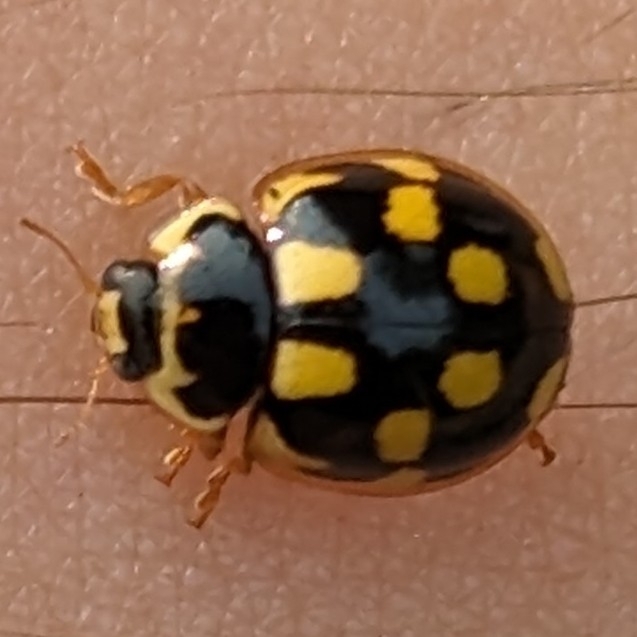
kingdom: Animalia
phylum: Arthropoda
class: Insecta
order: Coleoptera
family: Coccinellidae
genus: Propylaea
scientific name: Propylaea quatuordecimpunctata
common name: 14-spotted ladybird beetle
